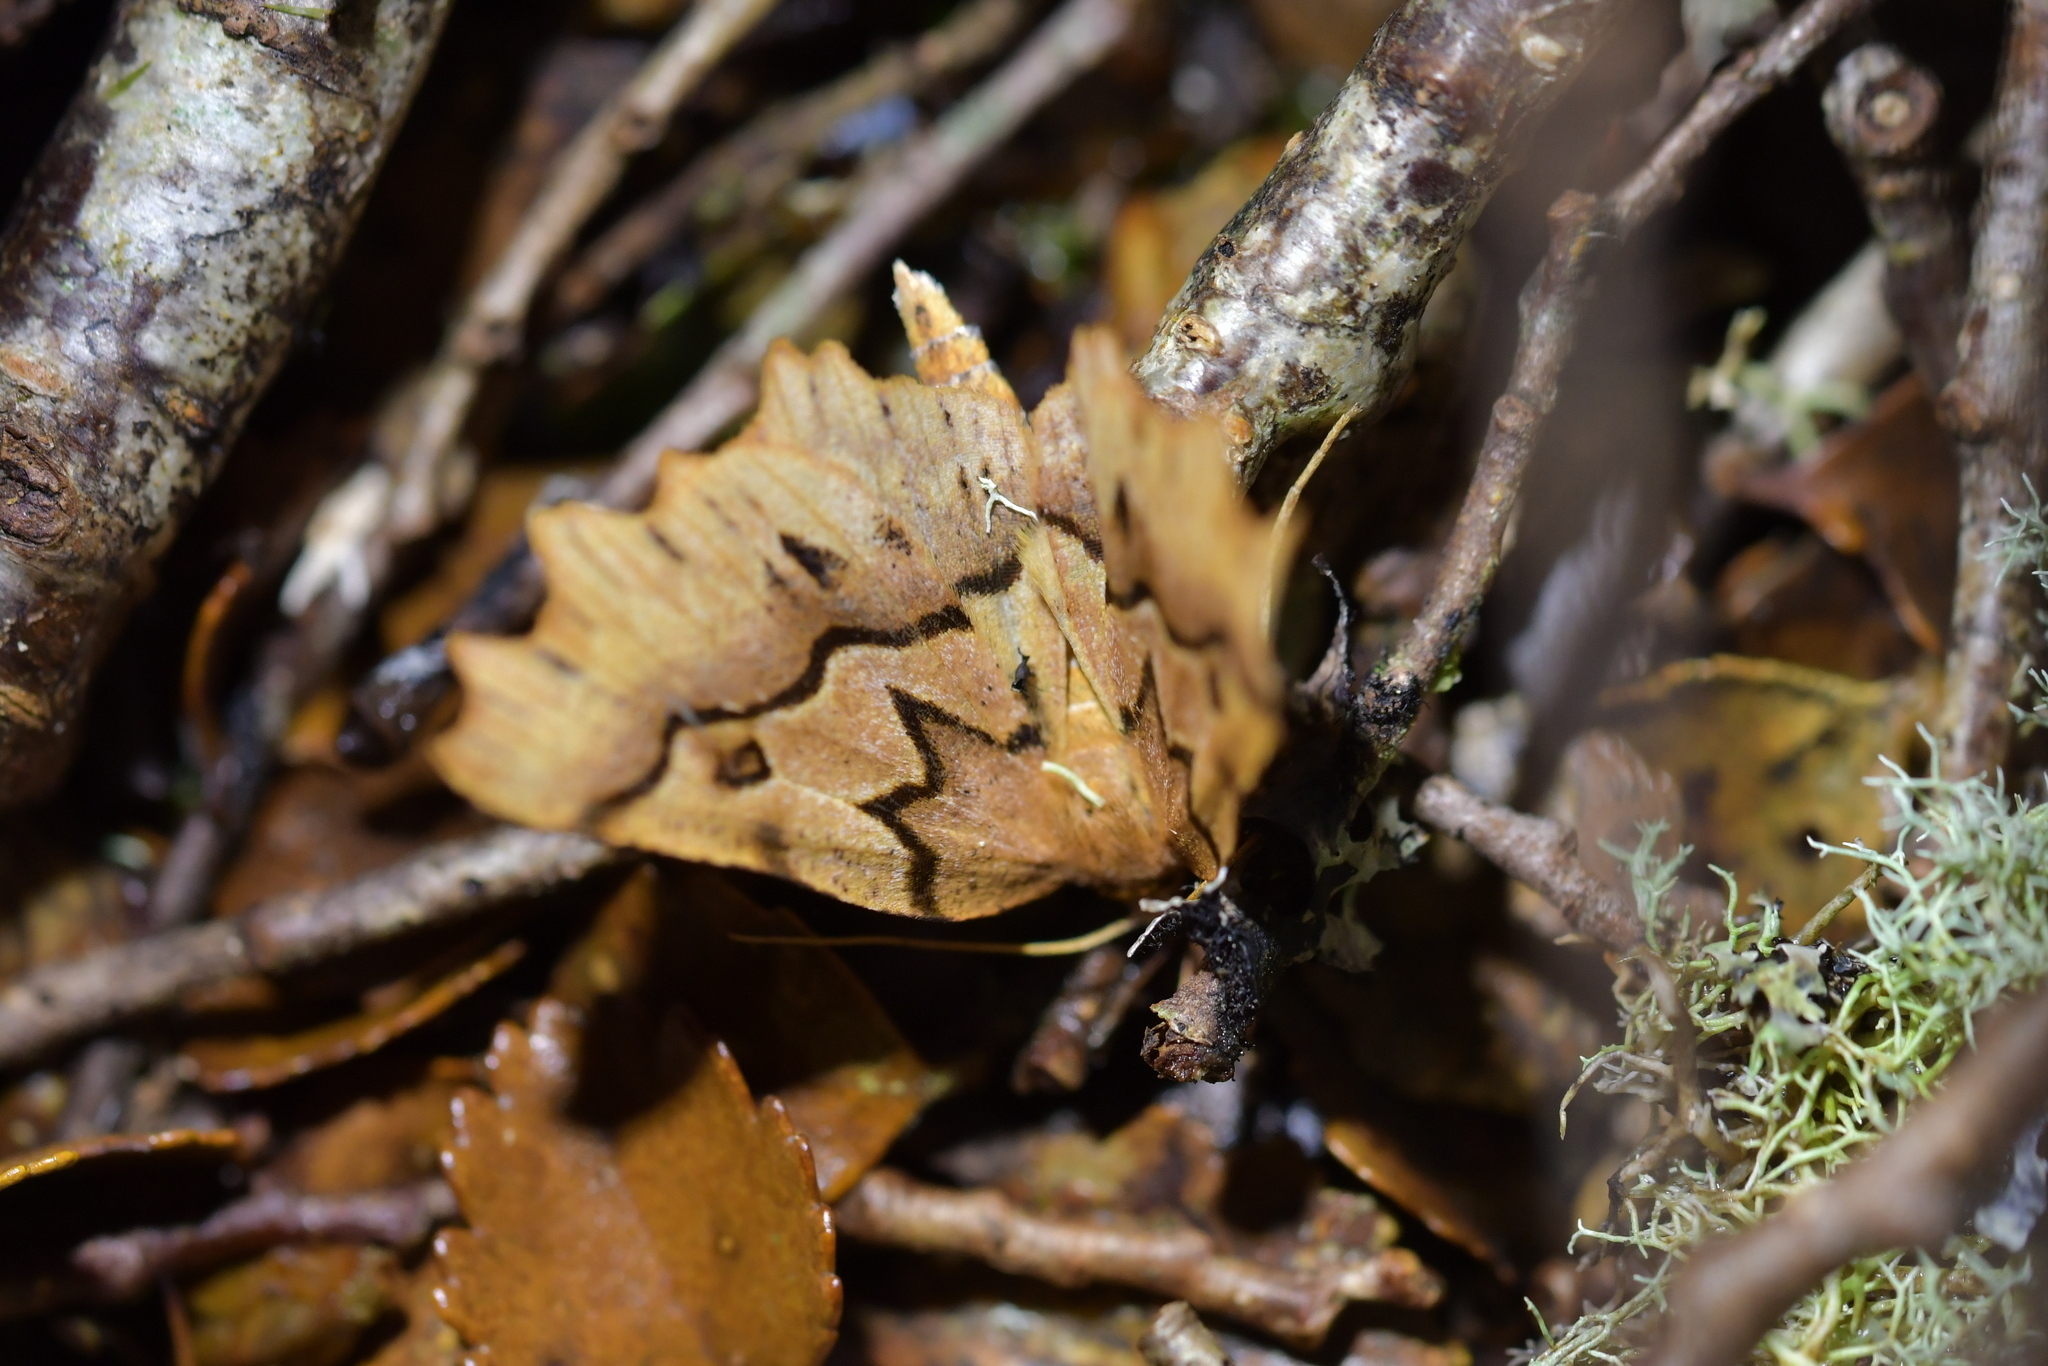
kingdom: Animalia
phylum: Arthropoda
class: Insecta
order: Lepidoptera
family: Geometridae
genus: Ischalis
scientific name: Ischalis fortinata
